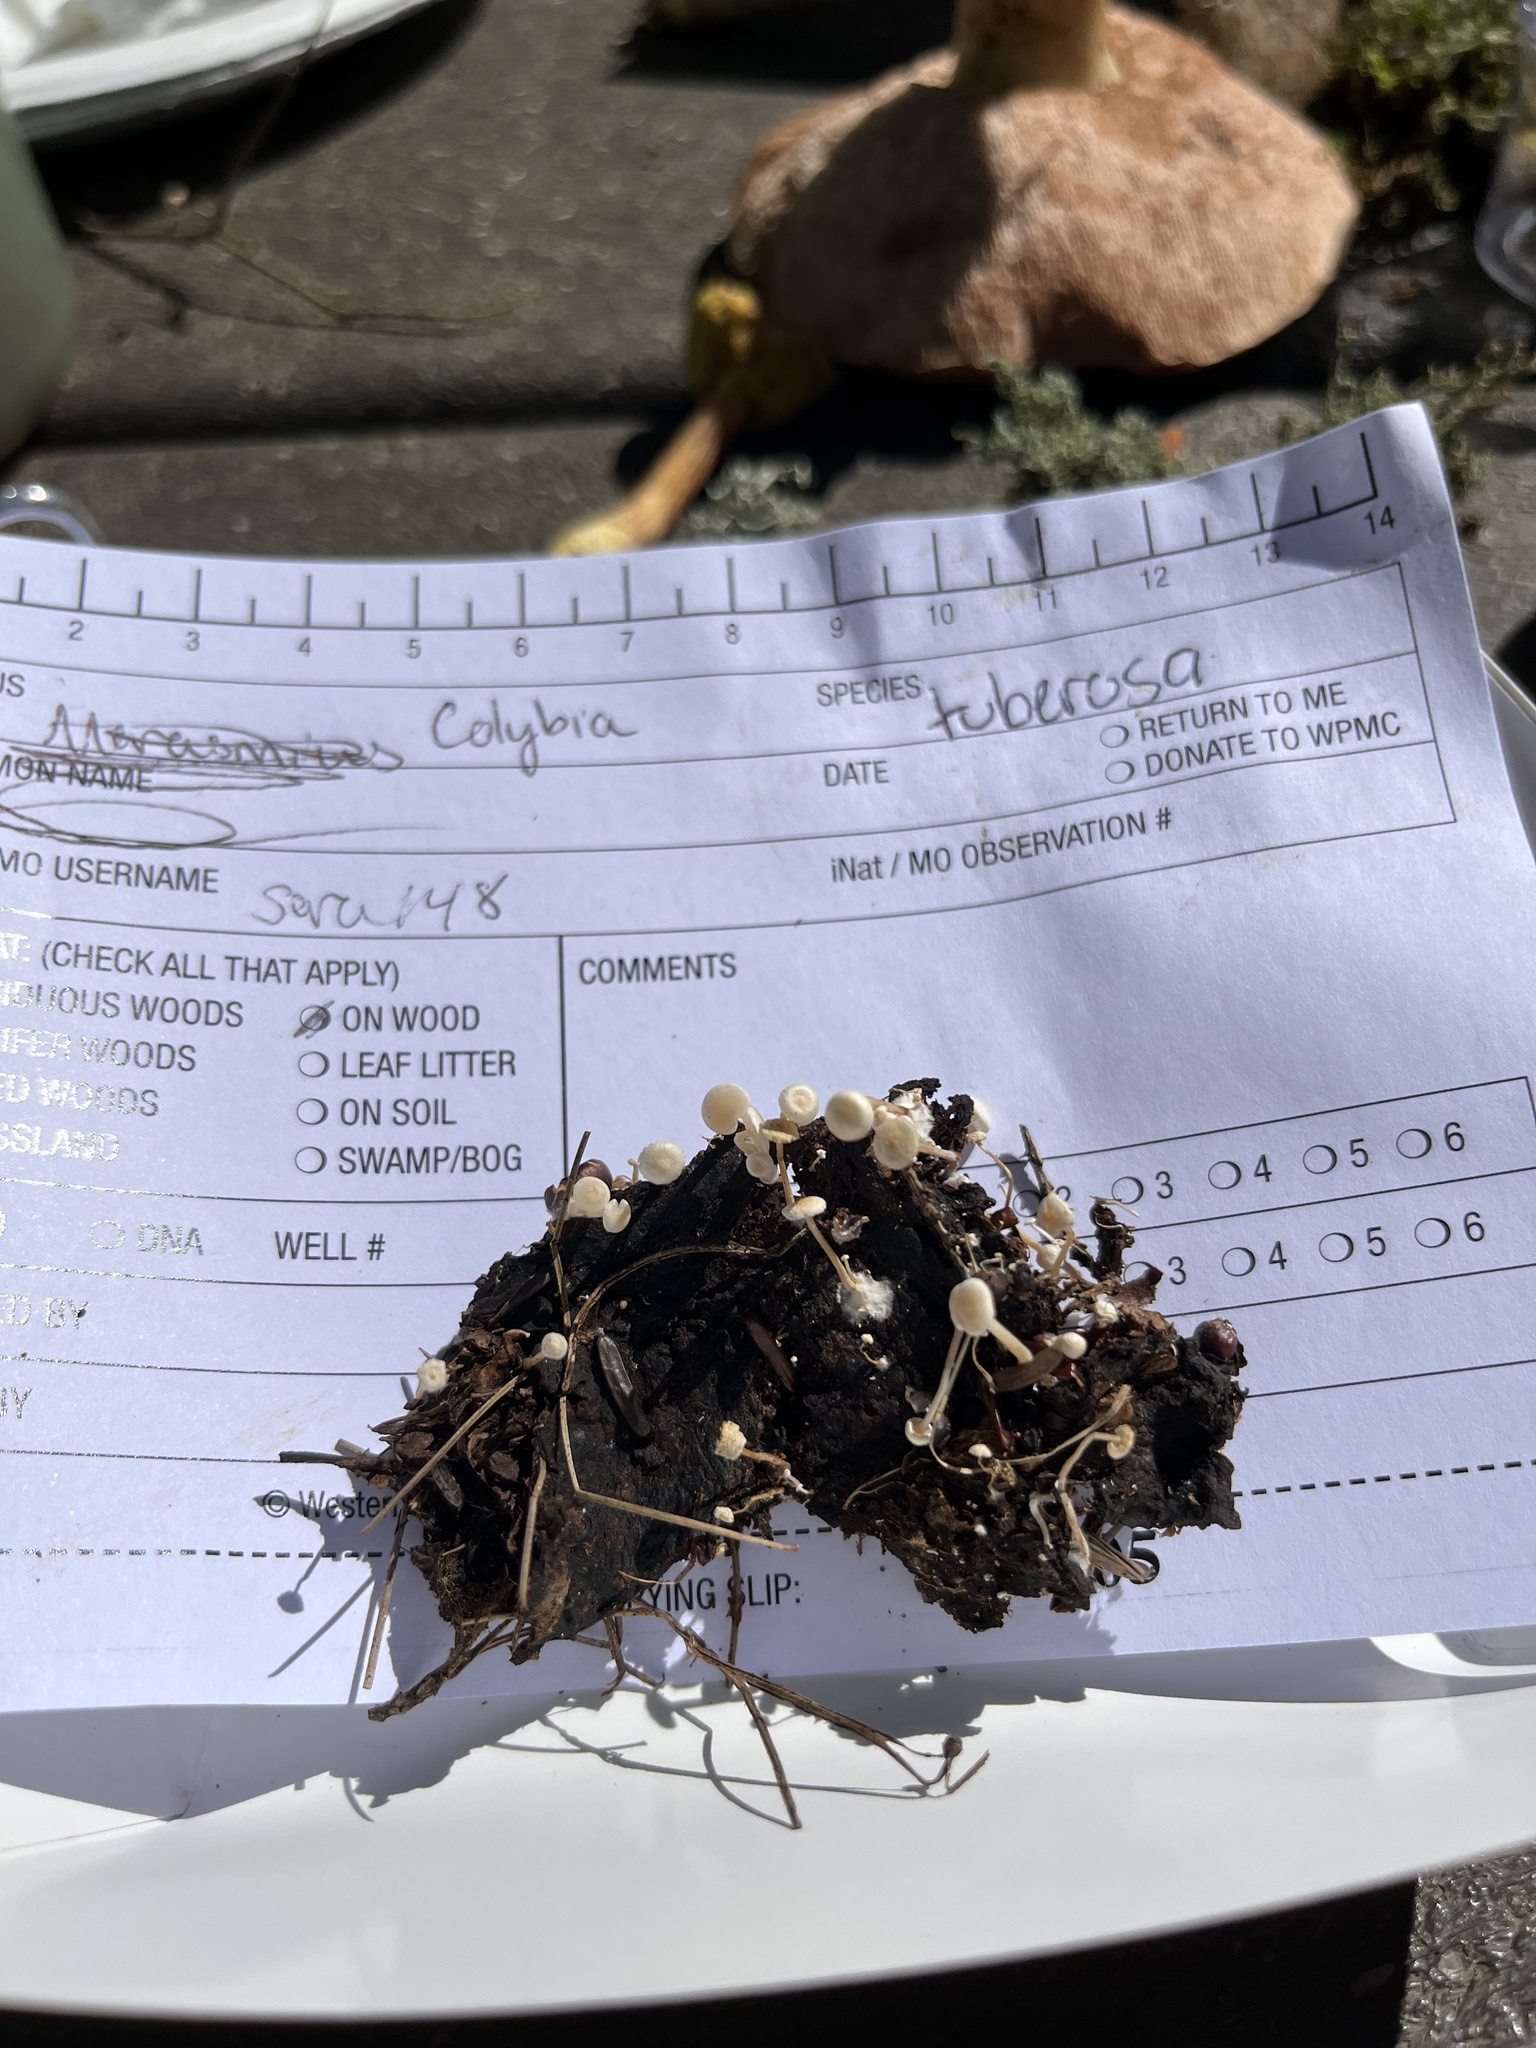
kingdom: Fungi
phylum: Basidiomycota
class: Agaricomycetes
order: Agaricales
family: Tricholomataceae
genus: Collybia
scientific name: Collybia tuberosa
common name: Lentil shanklet
